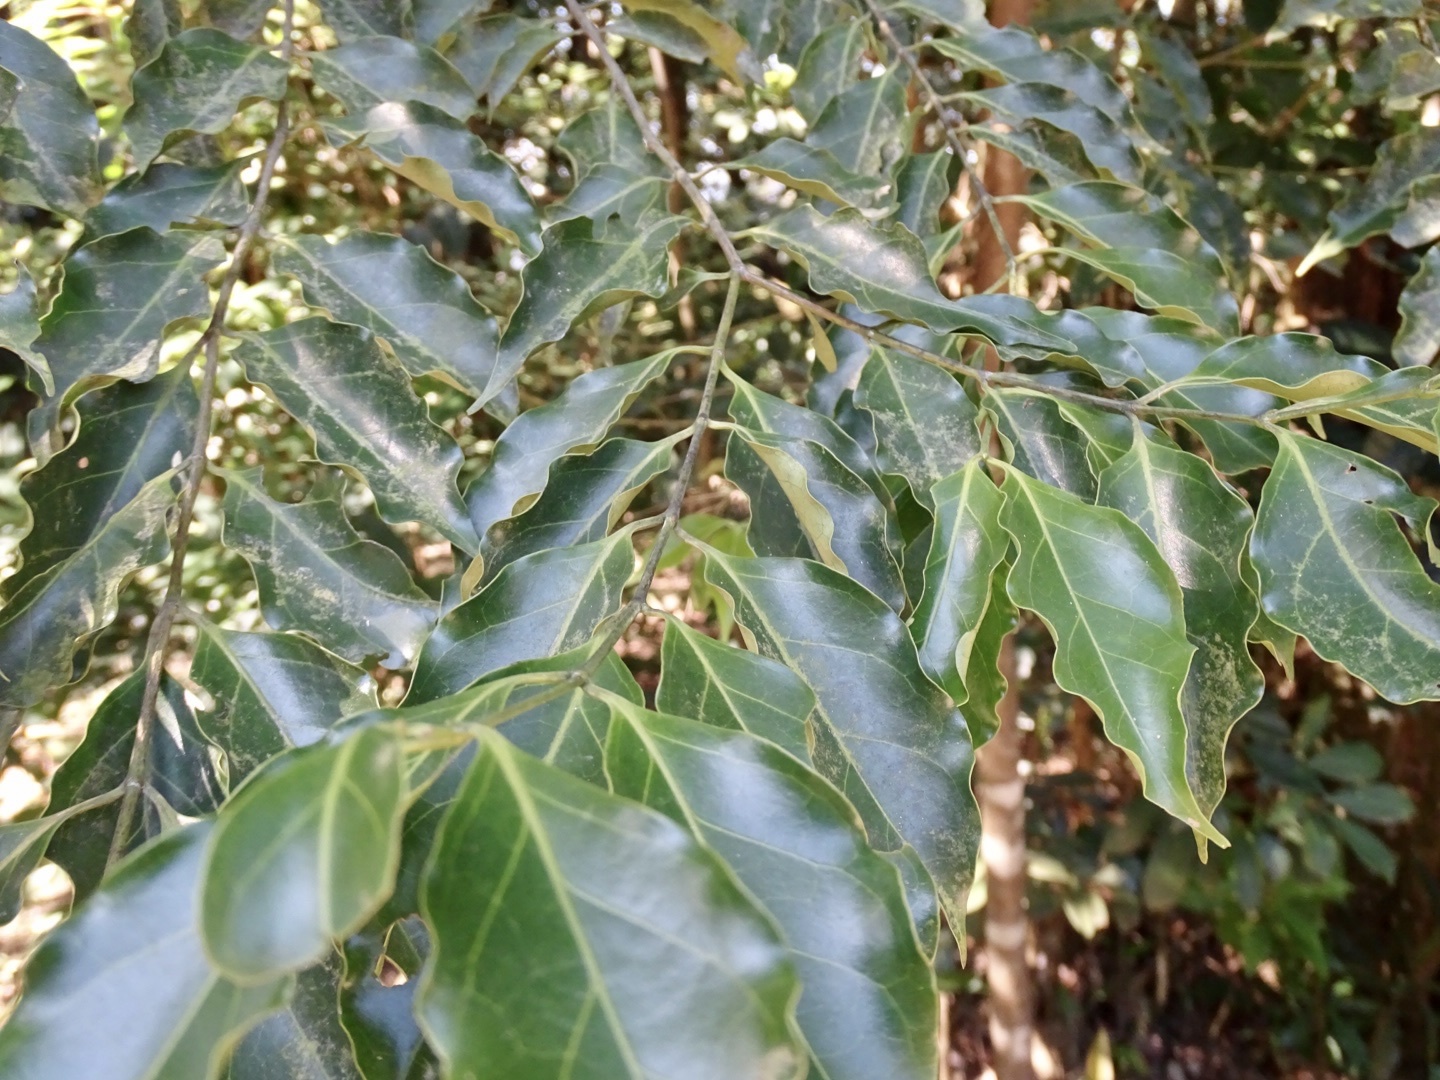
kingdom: Plantae
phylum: Tracheophyta
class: Magnoliopsida
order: Gentianales
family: Rubiaceae
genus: Psydrax
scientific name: Psydrax dicoccos
